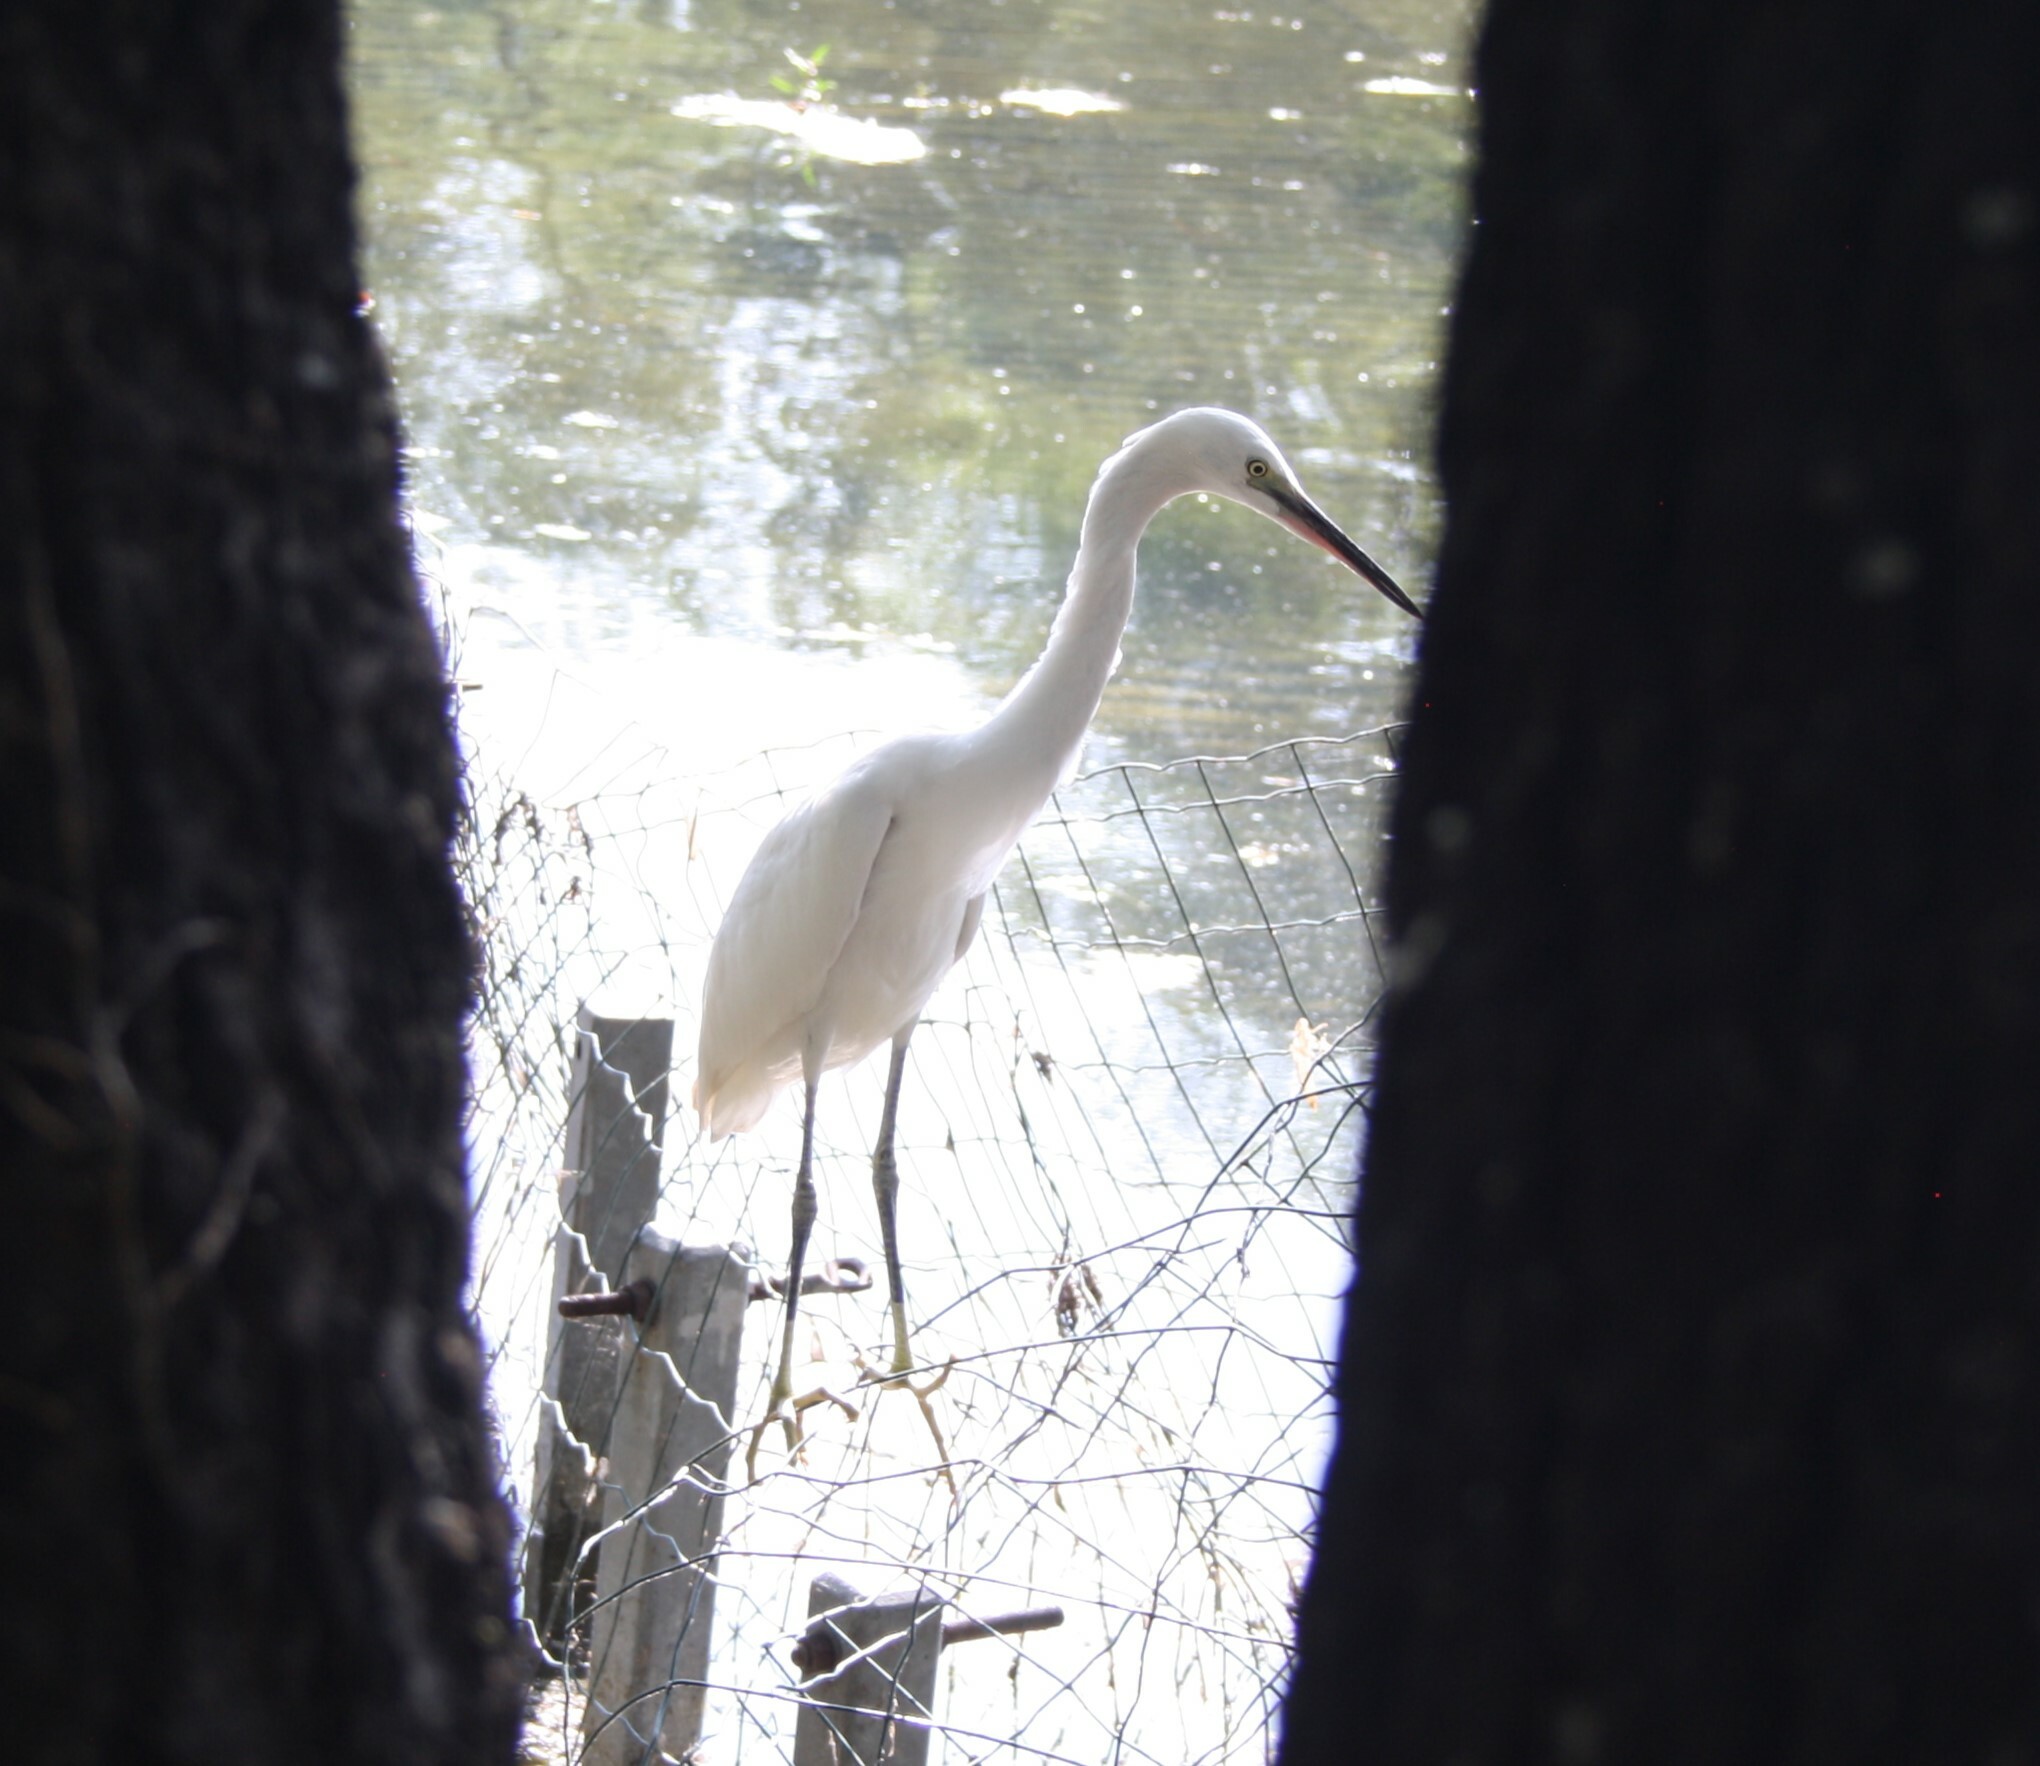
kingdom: Animalia
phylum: Chordata
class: Aves
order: Pelecaniformes
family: Ardeidae
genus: Egretta
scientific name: Egretta garzetta
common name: Little egret
